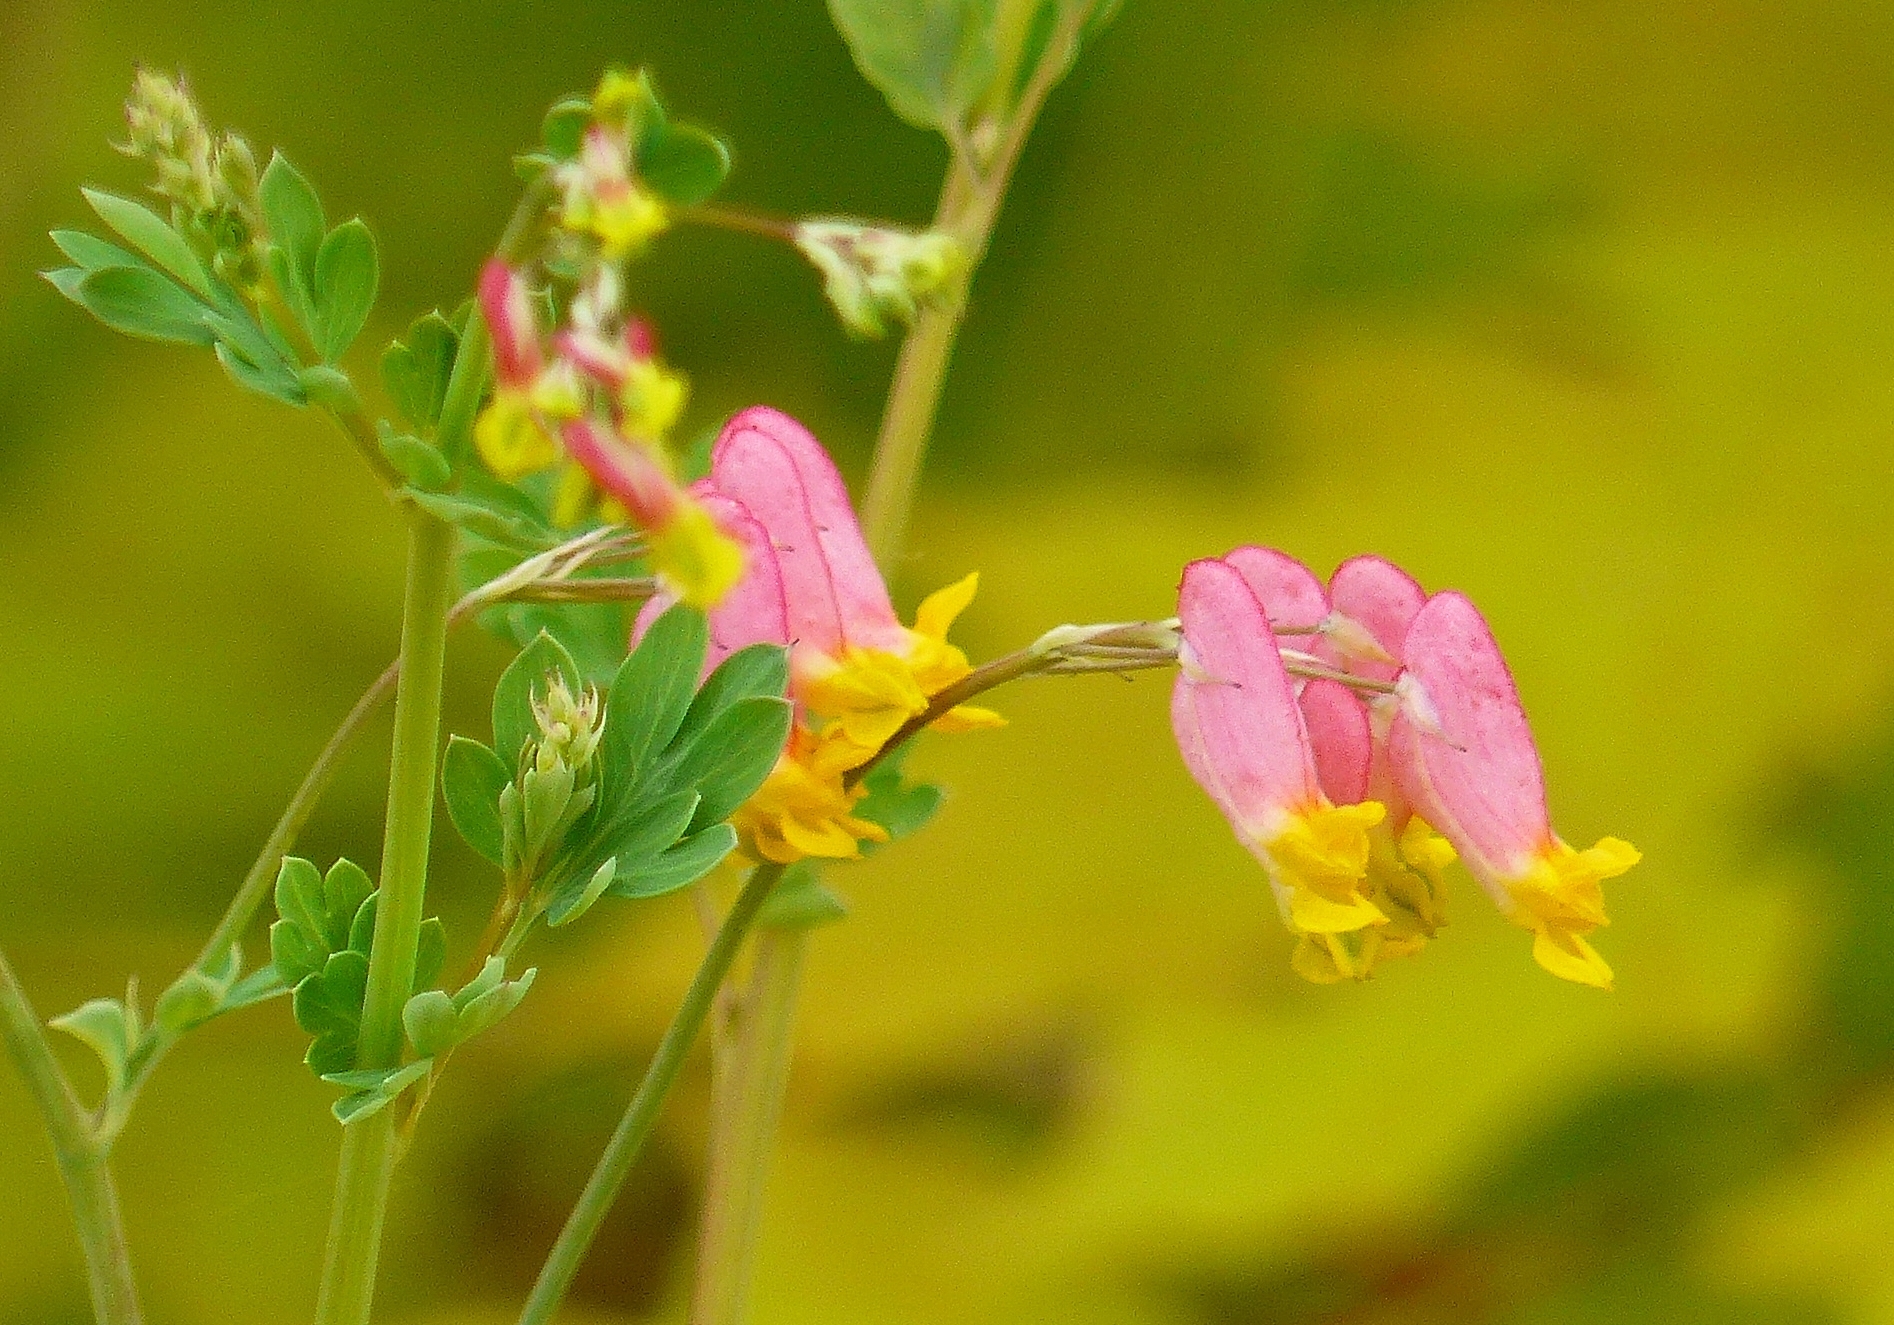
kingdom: Plantae
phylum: Tracheophyta
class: Magnoliopsida
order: Ranunculales
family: Papaveraceae
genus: Capnoides
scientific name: Capnoides sempervirens
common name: Rock harlequin
